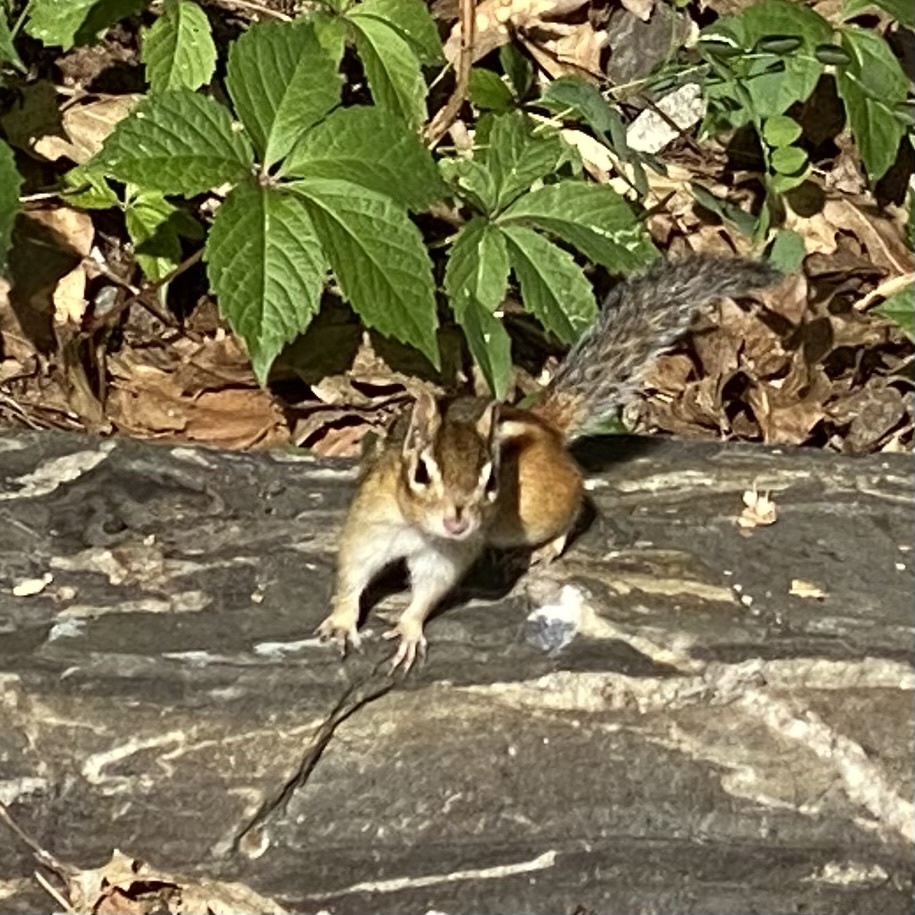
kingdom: Animalia
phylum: Chordata
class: Mammalia
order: Rodentia
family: Sciuridae
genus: Tamias
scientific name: Tamias striatus
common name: Eastern chipmunk
